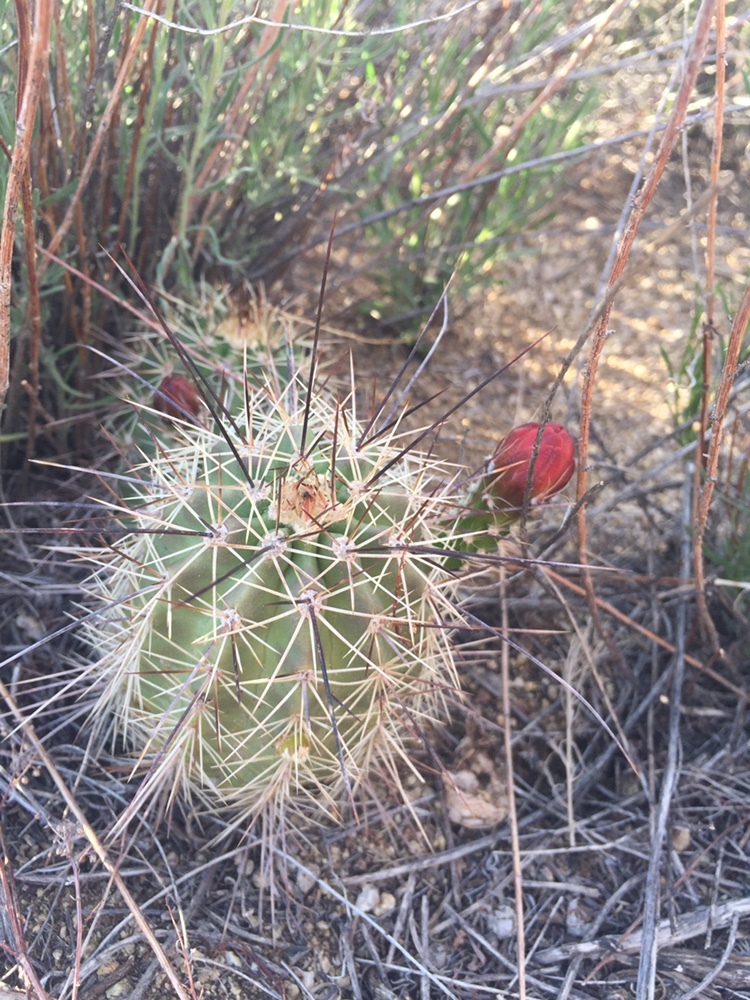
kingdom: Plantae
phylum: Tracheophyta
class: Magnoliopsida
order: Caryophyllales
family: Cactaceae
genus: Echinocereus
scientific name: Echinocereus coccineus
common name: Scarlet hedgehog cactus
